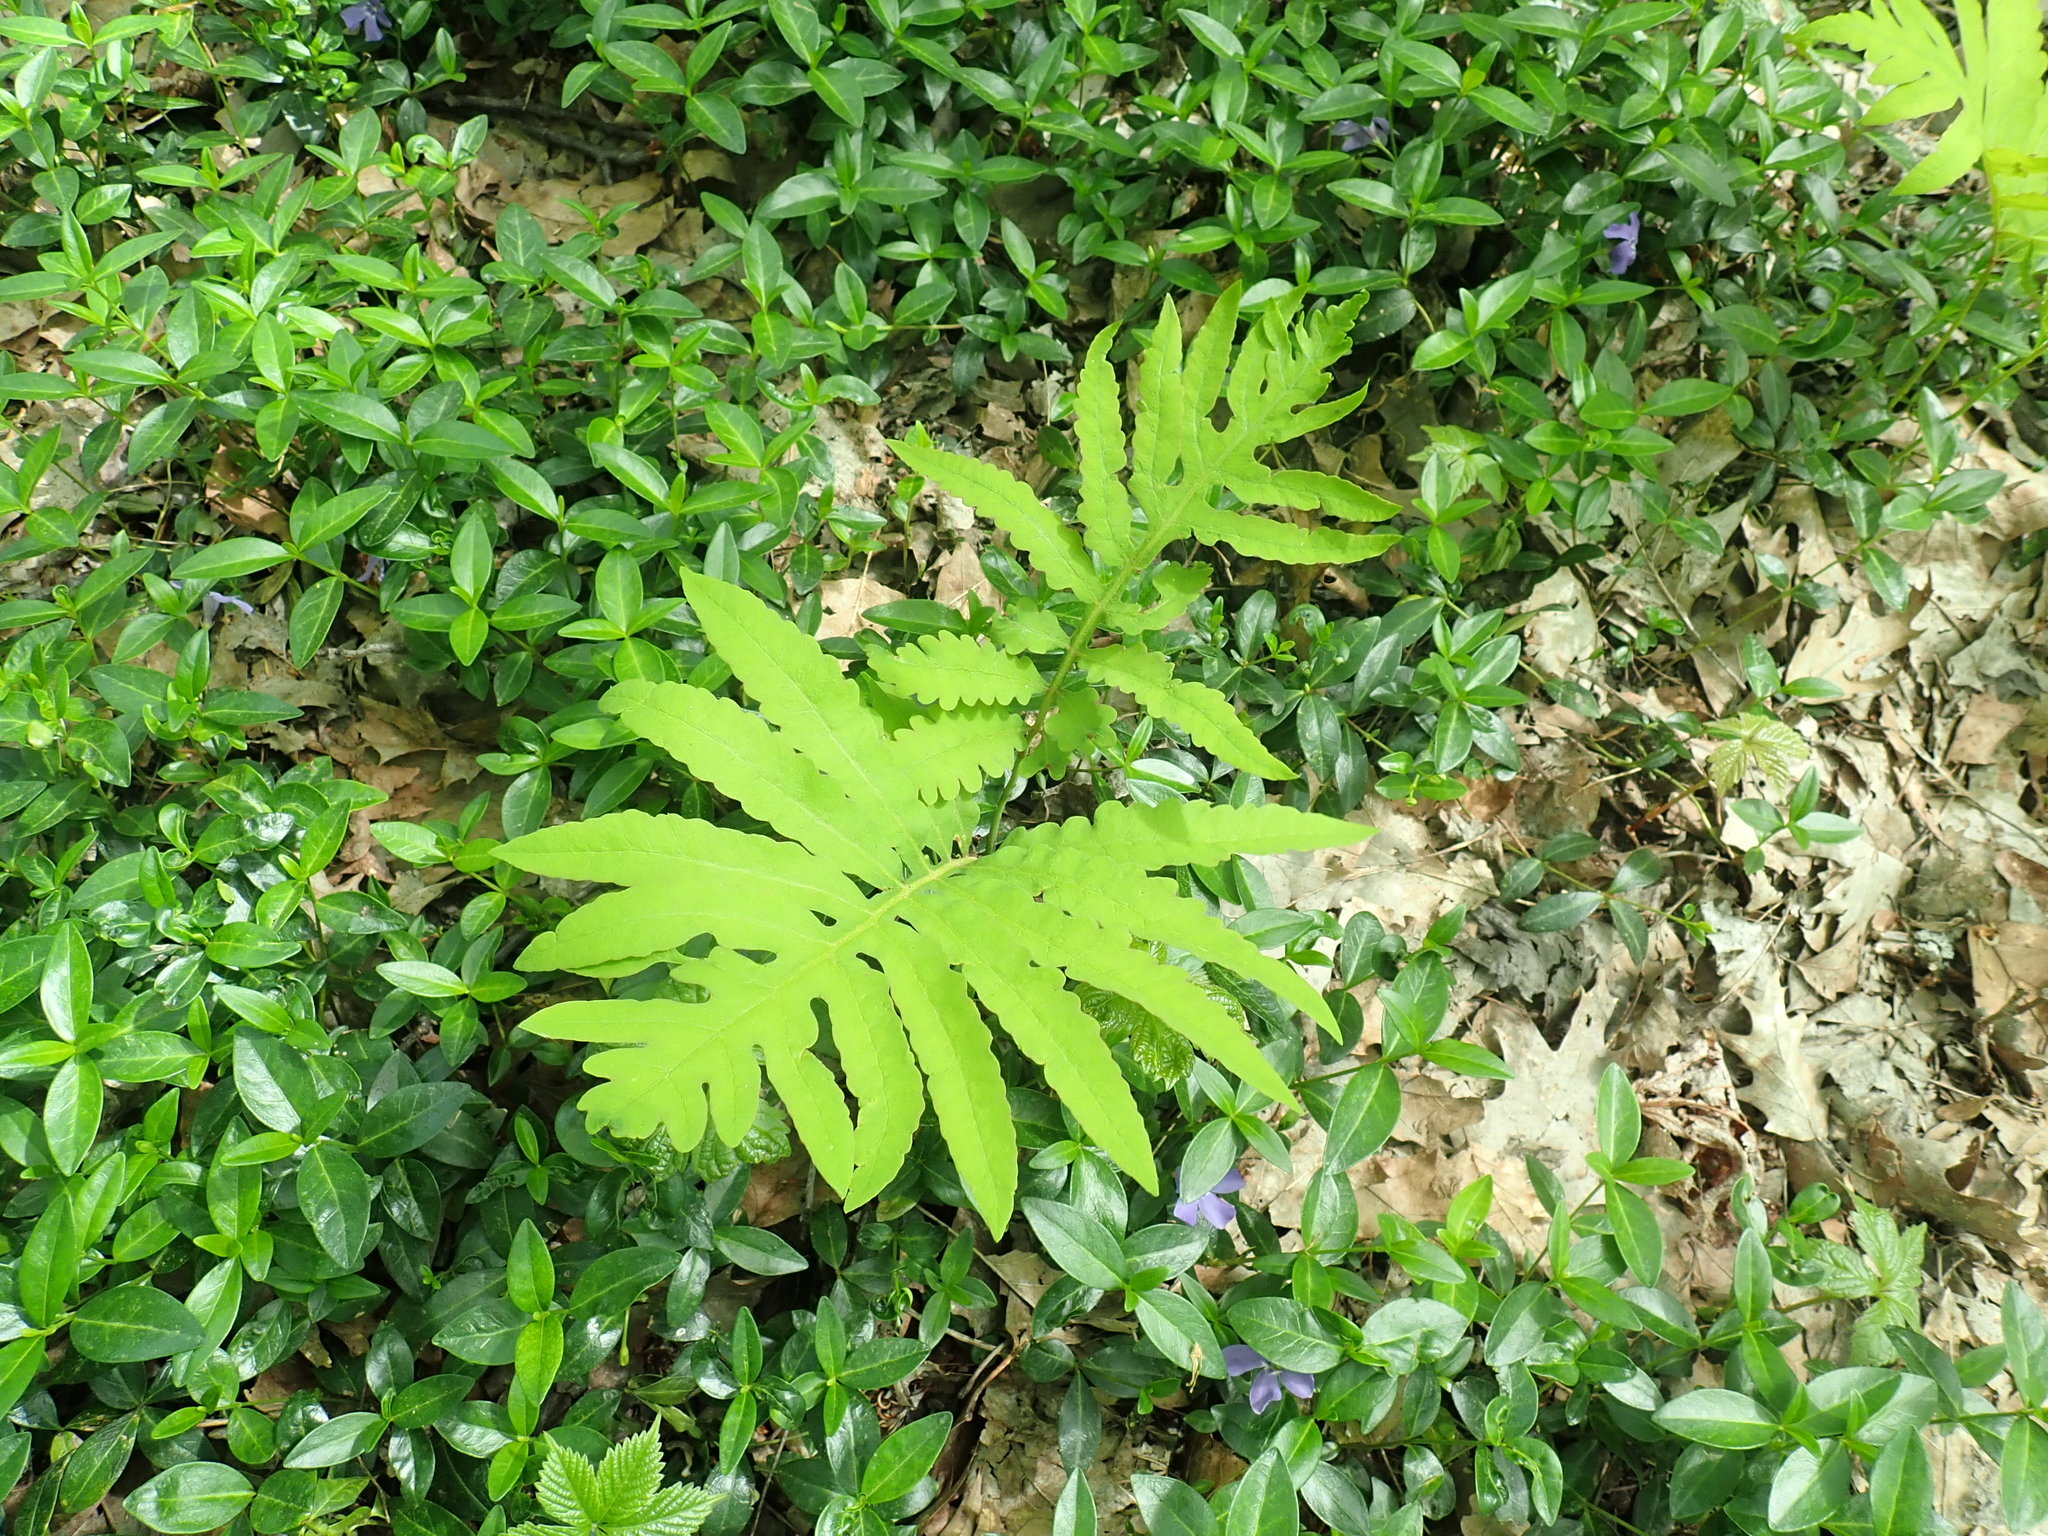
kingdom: Plantae
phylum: Tracheophyta
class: Polypodiopsida
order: Polypodiales
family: Onocleaceae
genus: Onoclea
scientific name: Onoclea sensibilis
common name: Sensitive fern
